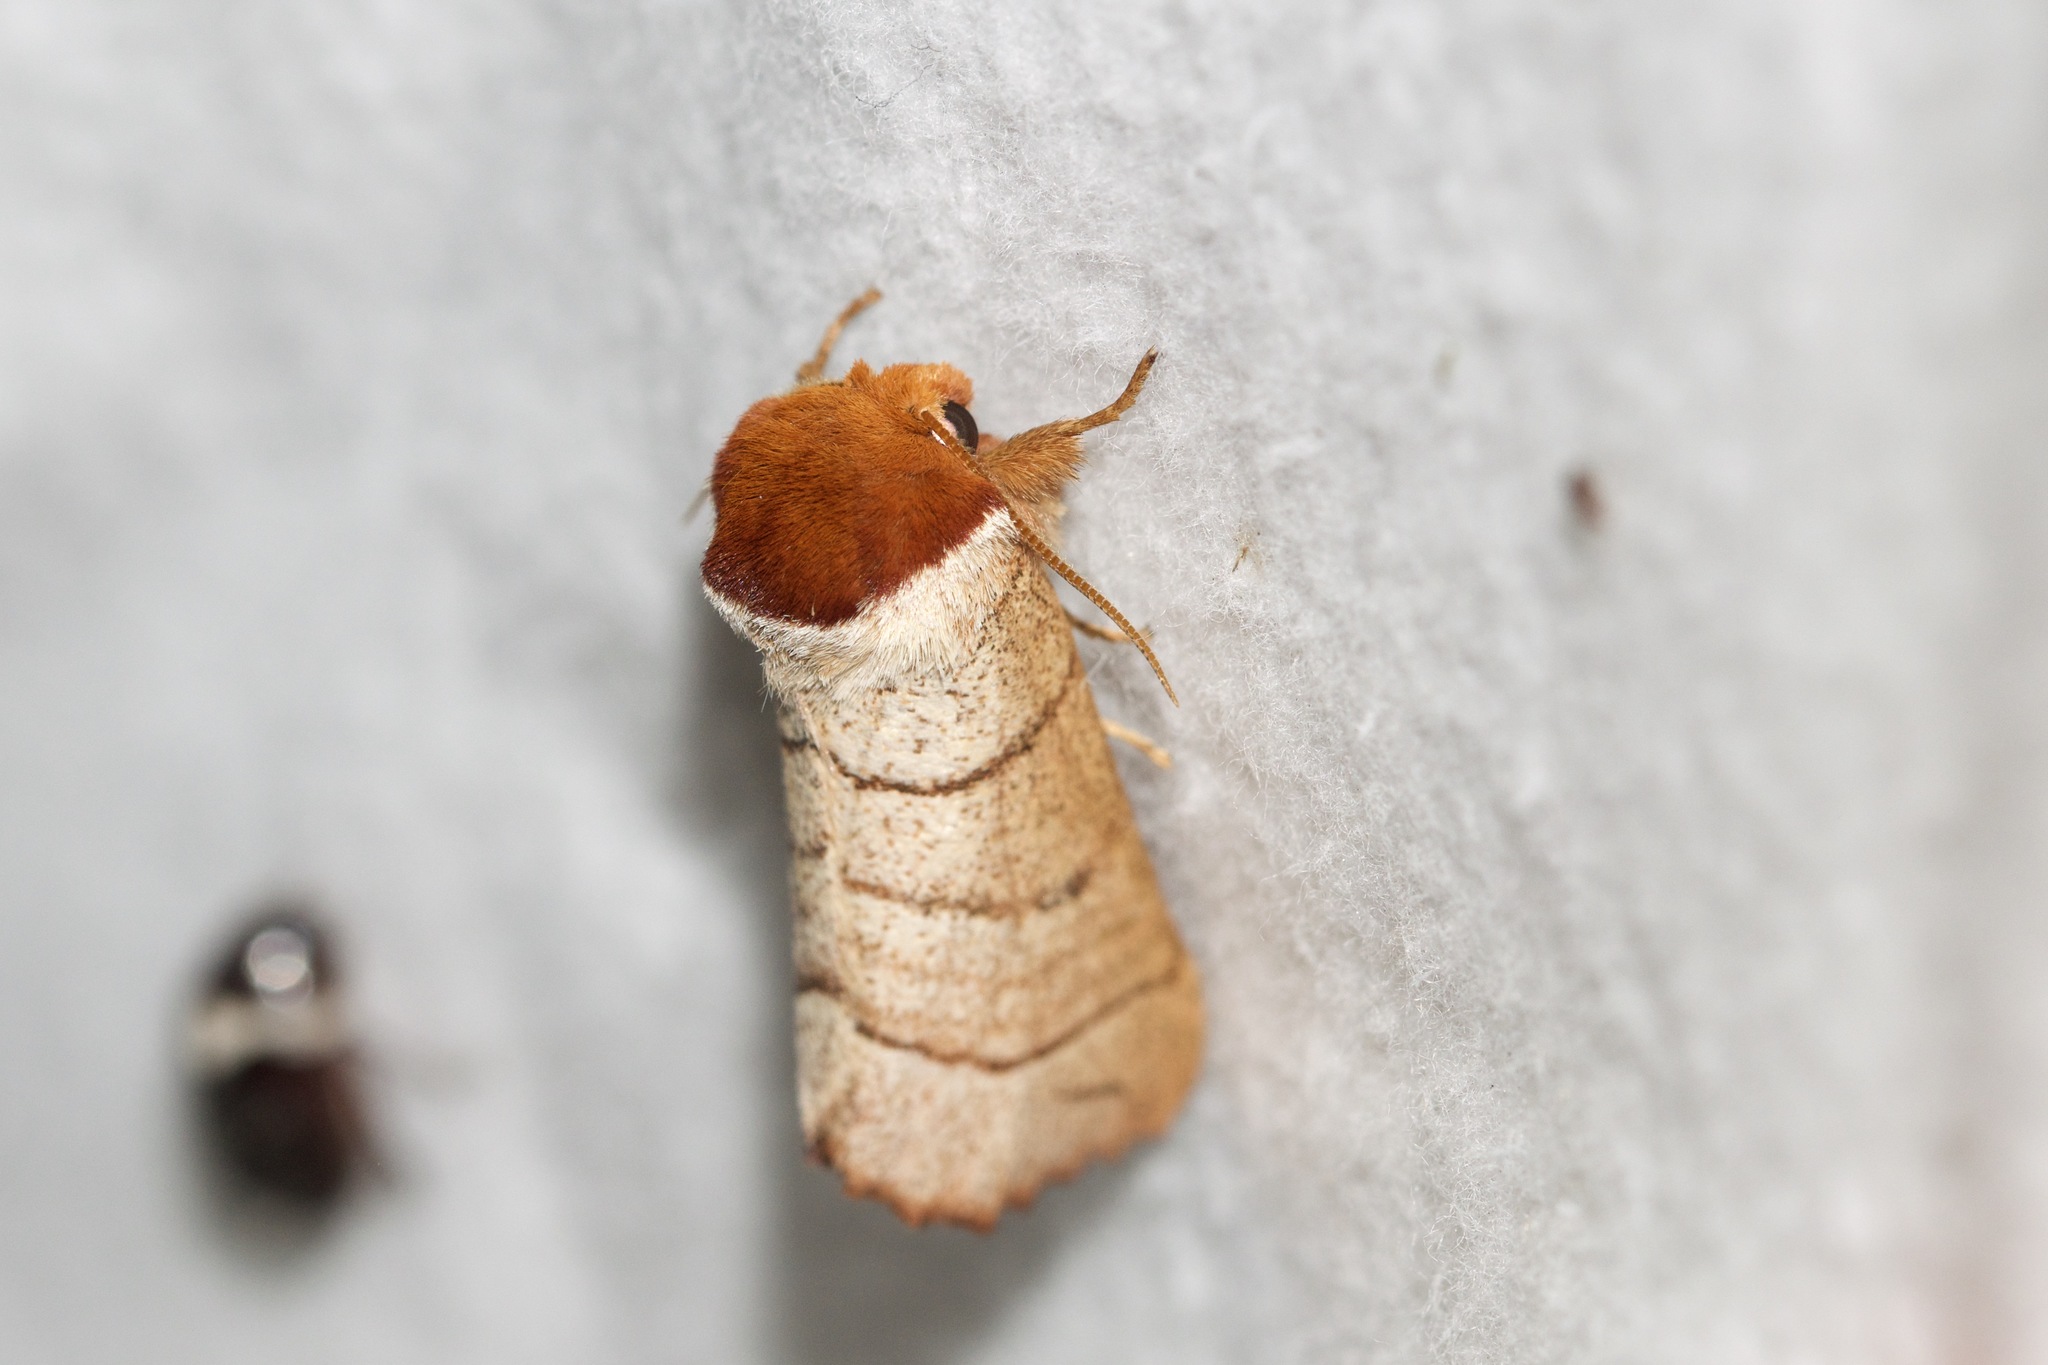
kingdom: Animalia
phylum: Arthropoda
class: Insecta
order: Lepidoptera
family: Notodontidae
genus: Datana
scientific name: Datana ministra
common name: Yellow-necked caterpillar moth
